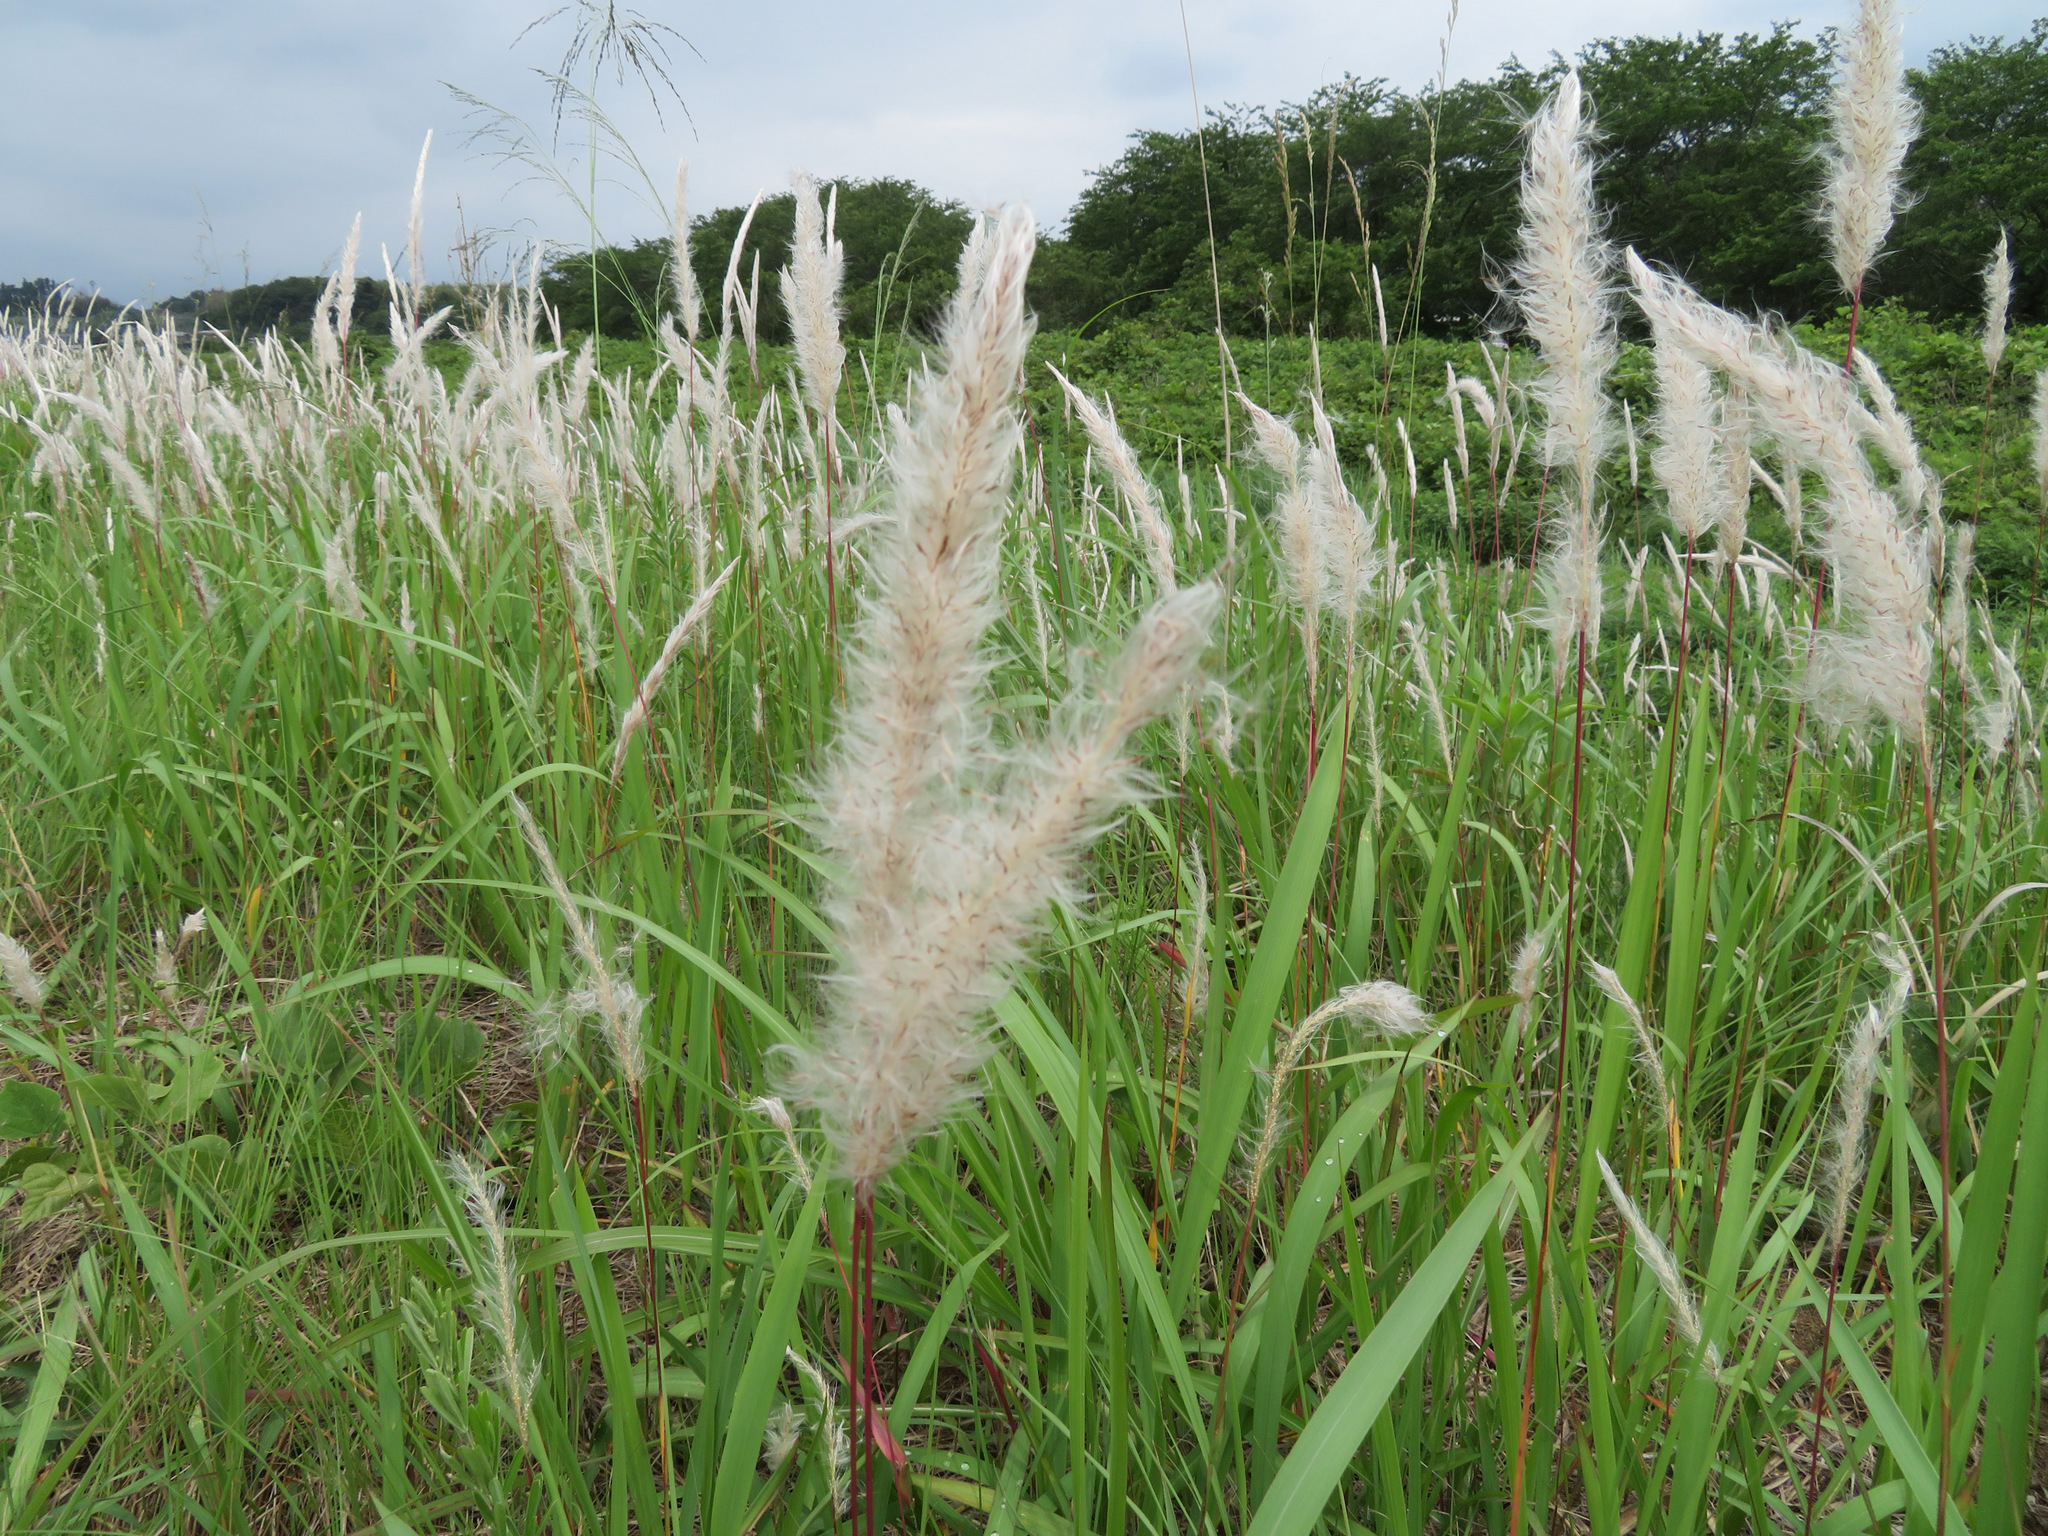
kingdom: Plantae
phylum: Tracheophyta
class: Liliopsida
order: Poales
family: Poaceae
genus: Imperata
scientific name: Imperata cylindrica
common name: Cogongrass
